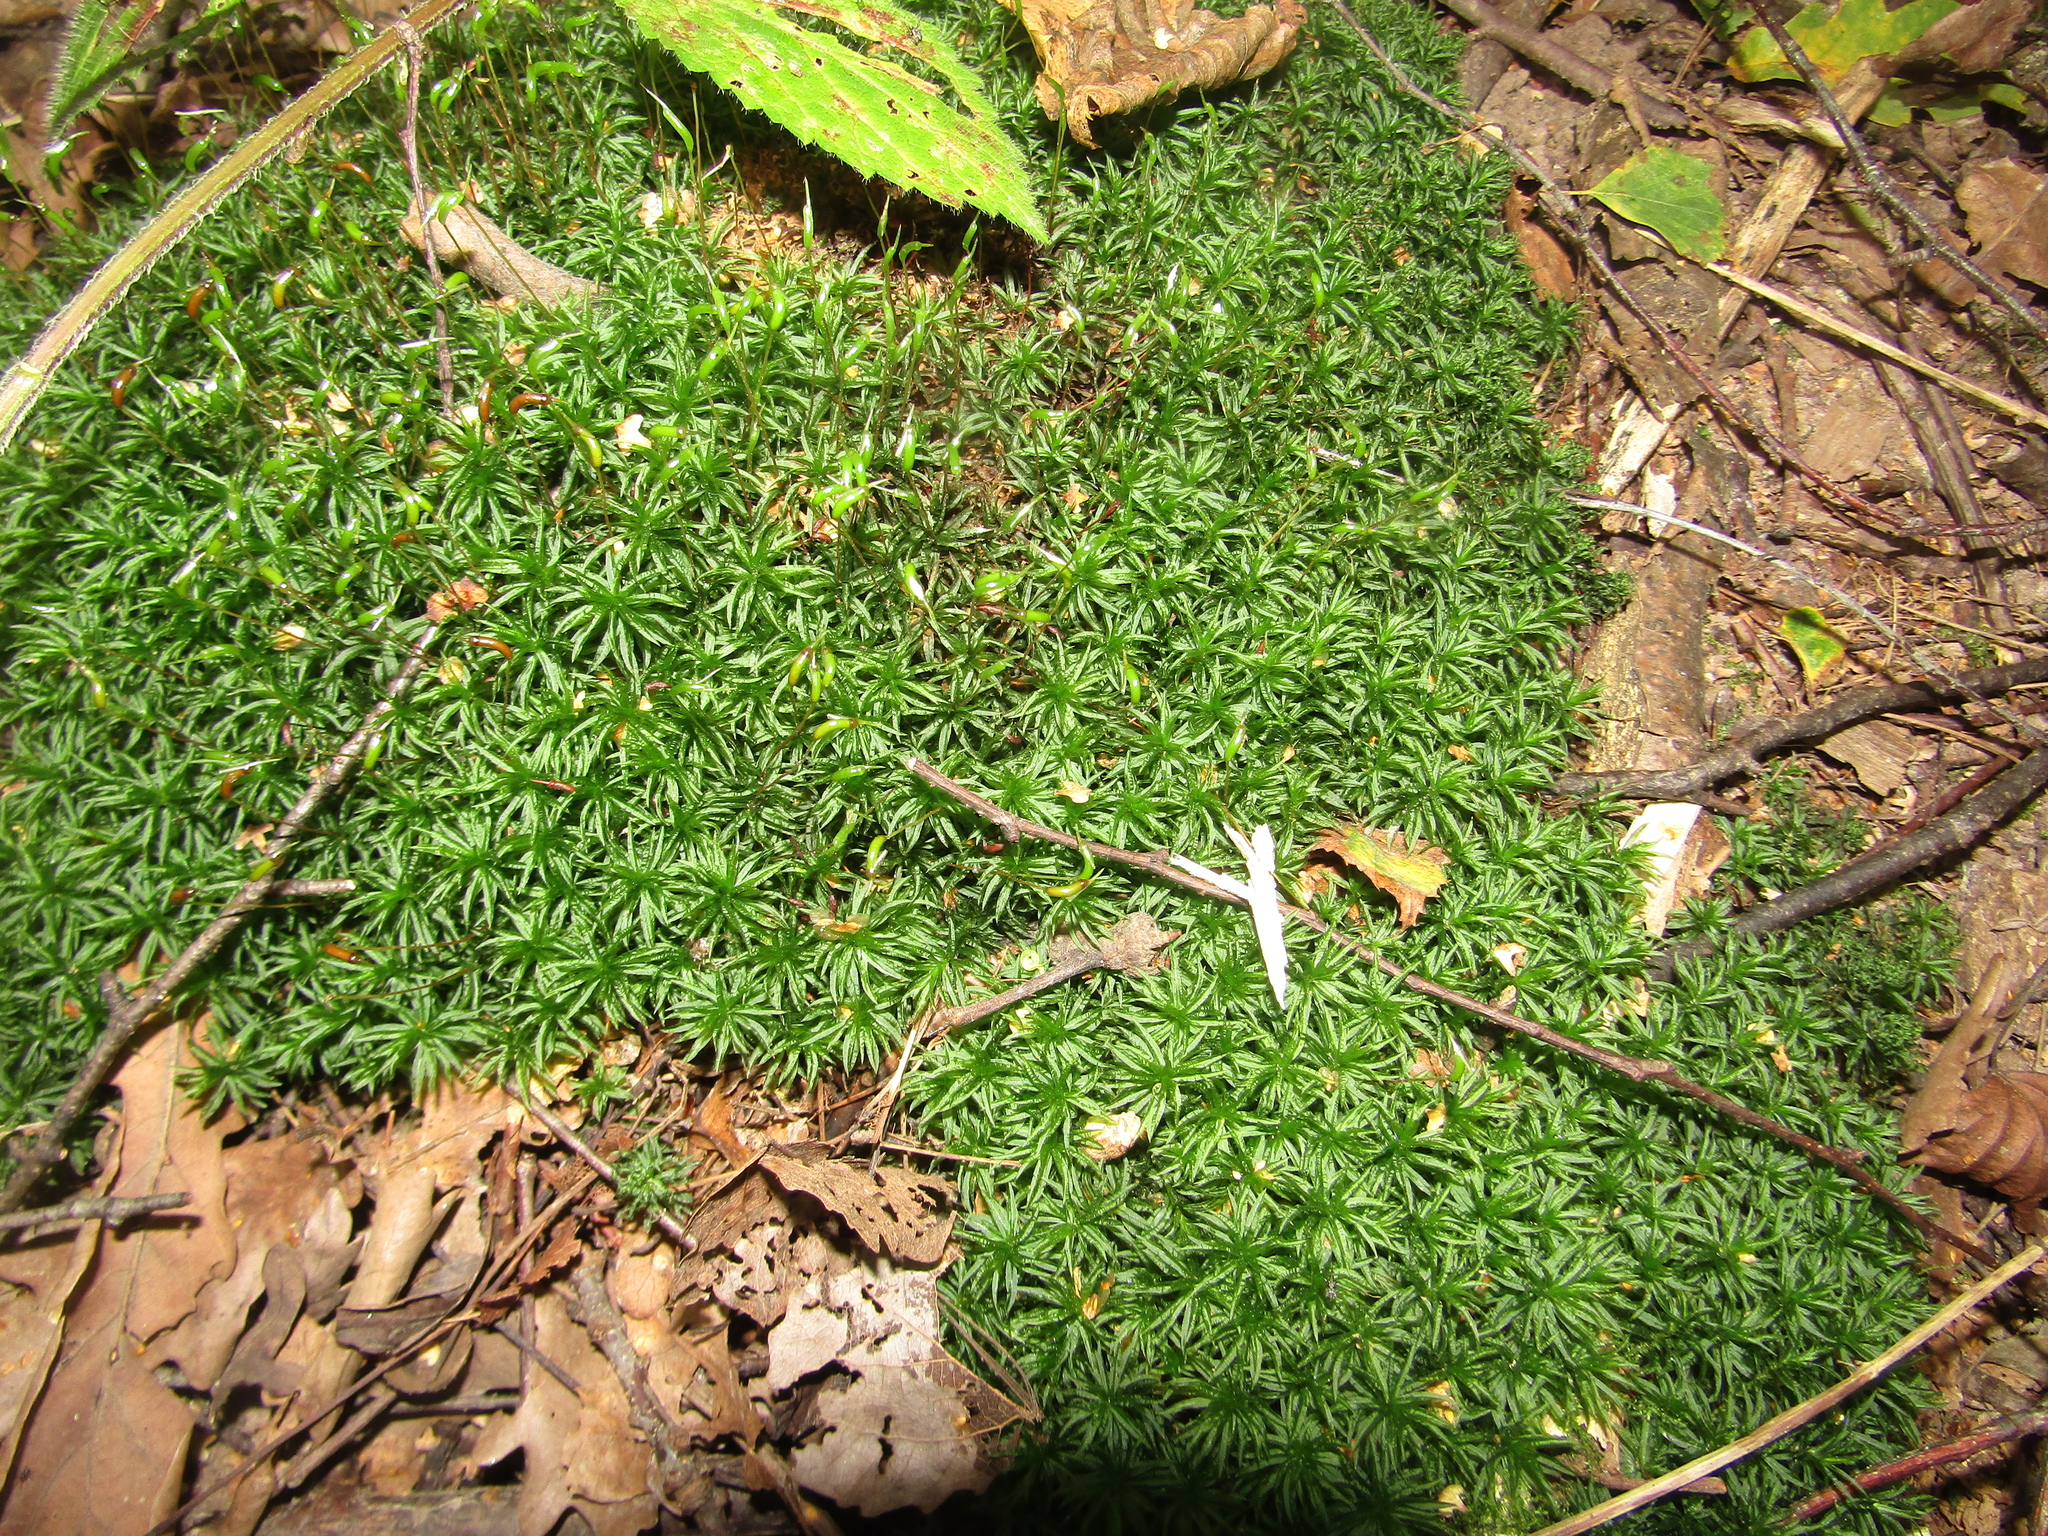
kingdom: Plantae
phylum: Bryophyta
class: Polytrichopsida
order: Polytrichales
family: Polytrichaceae
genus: Atrichum
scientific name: Atrichum undulatum
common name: Common smoothcap
